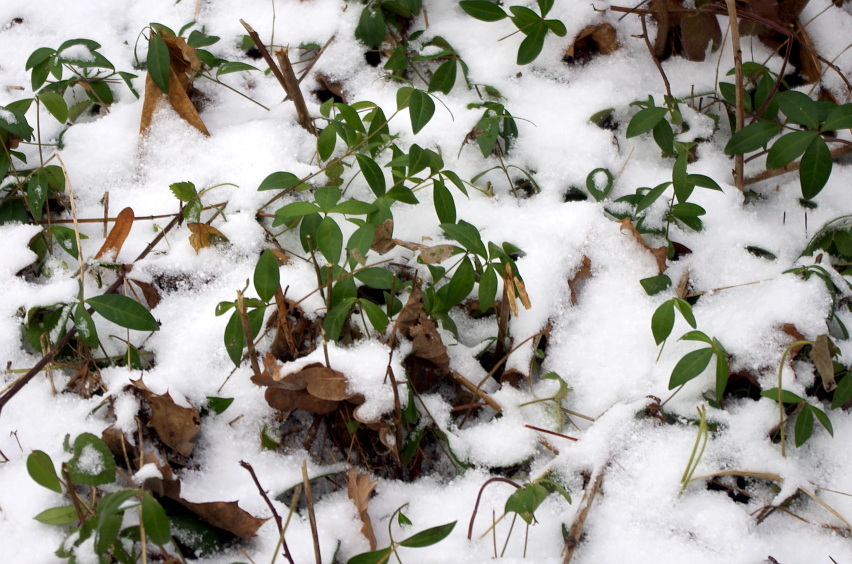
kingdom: Plantae
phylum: Tracheophyta
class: Magnoliopsida
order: Gentianales
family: Apocynaceae
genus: Vinca
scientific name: Vinca minor
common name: Lesser periwinkle
